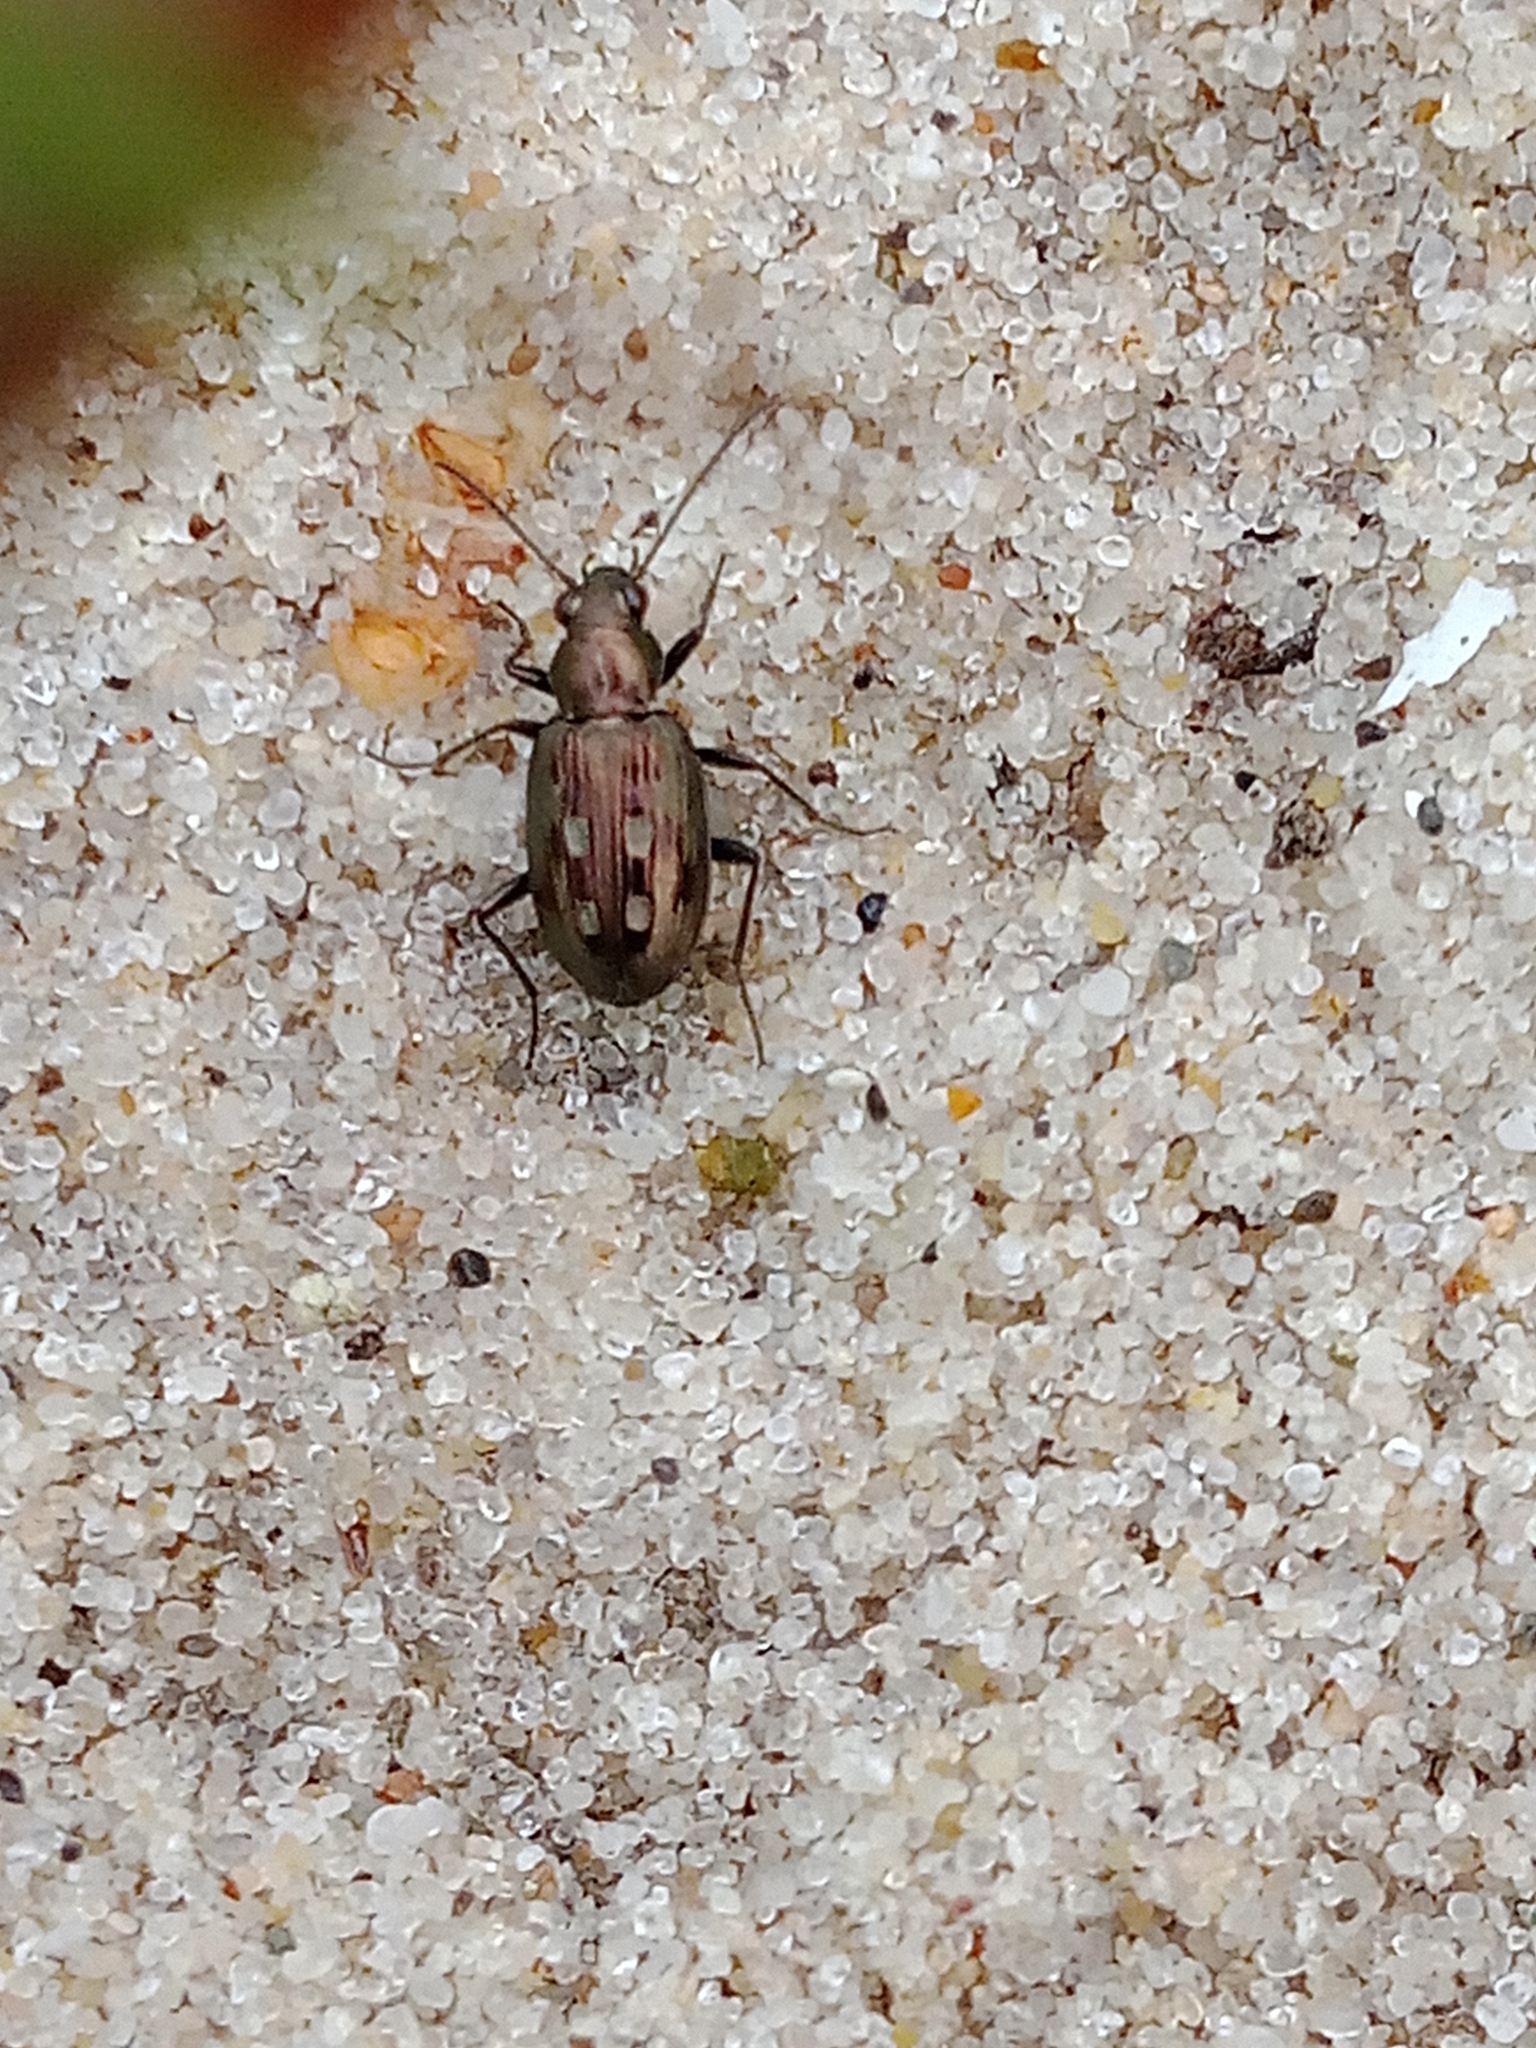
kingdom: Animalia
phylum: Arthropoda
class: Insecta
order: Coleoptera
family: Carabidae
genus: Bembidion
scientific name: Bembidion litorale
